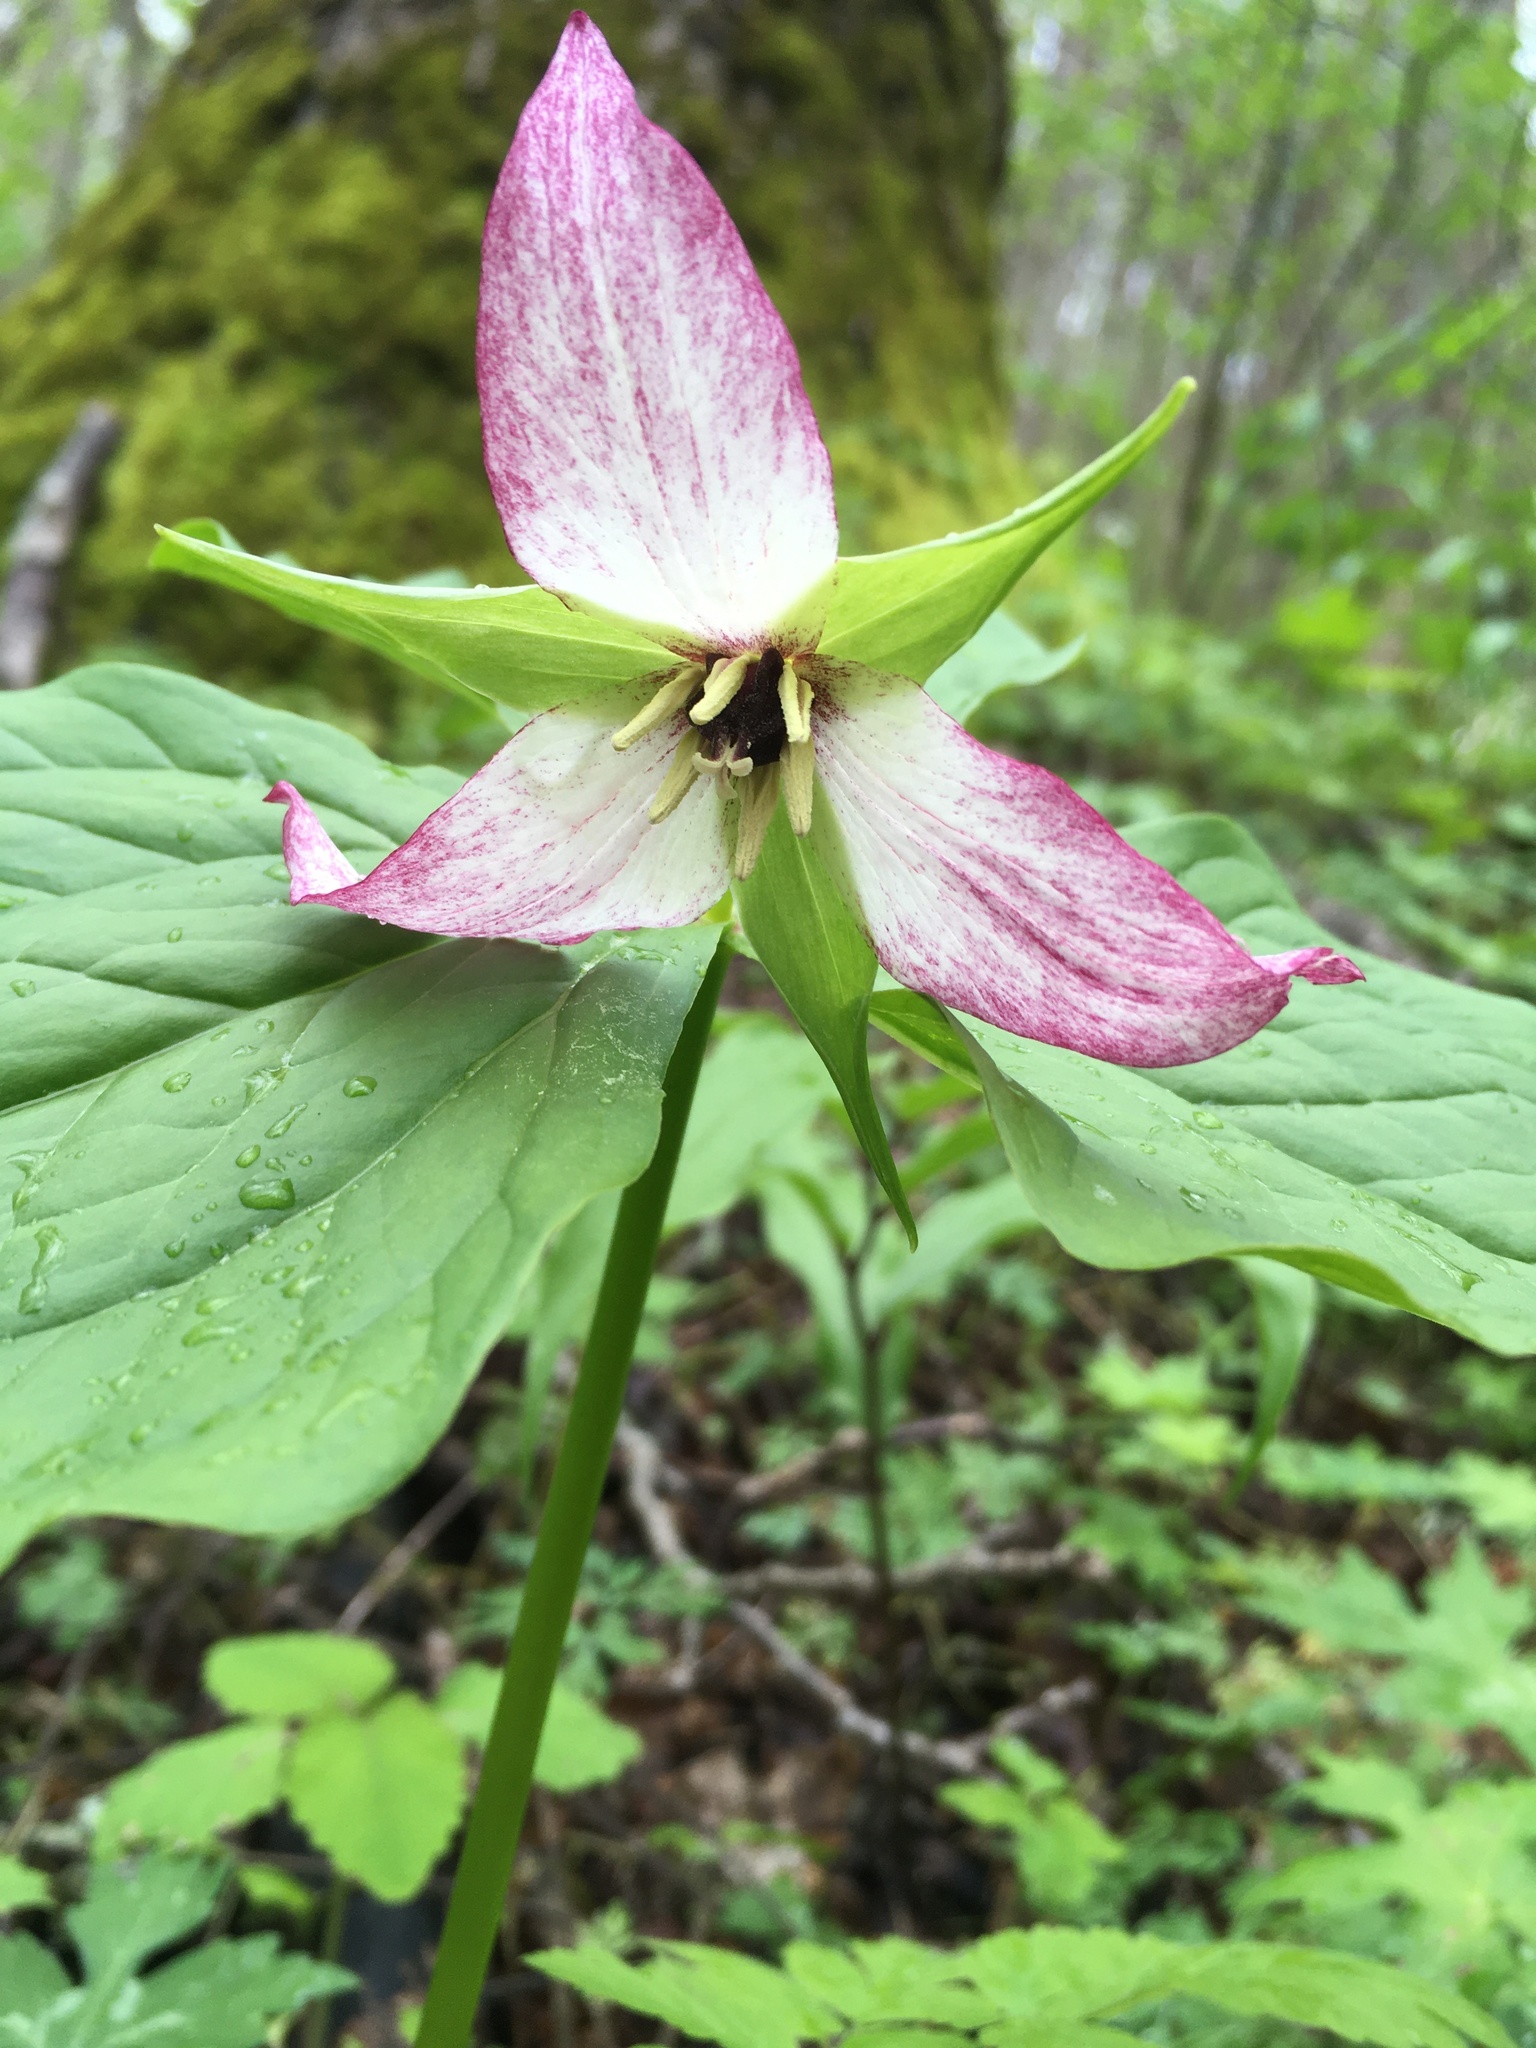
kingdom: Plantae
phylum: Tracheophyta
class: Liliopsida
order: Liliales
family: Melanthiaceae
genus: Trillium
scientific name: Trillium erectum
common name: Purple trillium
